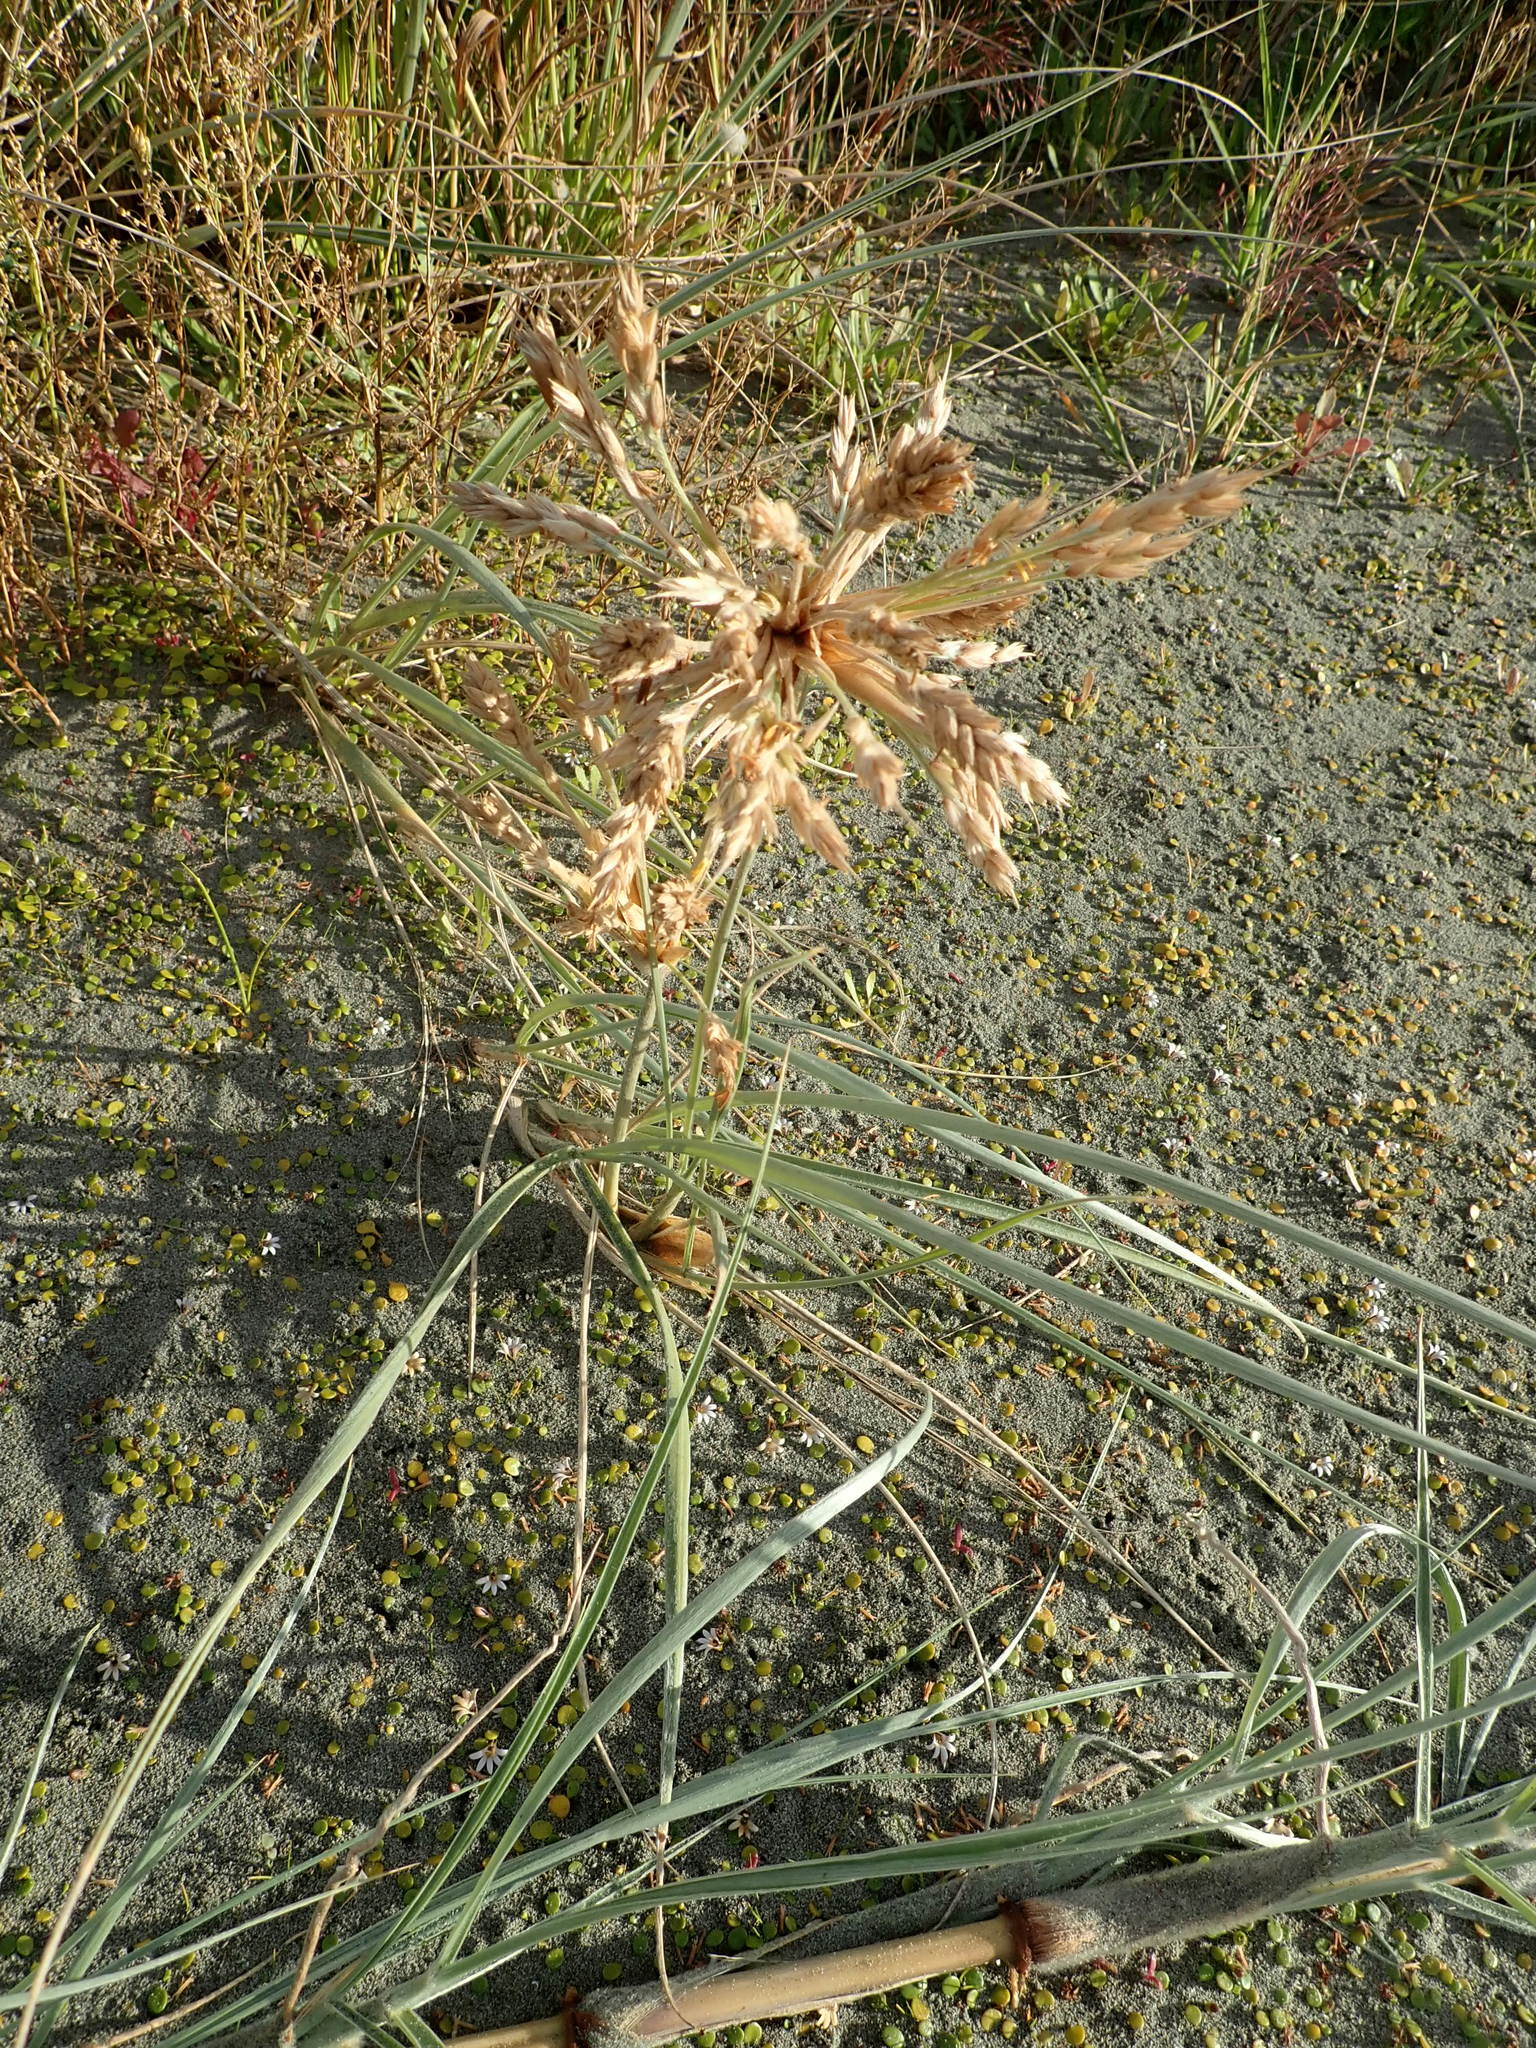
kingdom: Plantae
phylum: Tracheophyta
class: Liliopsida
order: Poales
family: Poaceae
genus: Spinifex
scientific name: Spinifex sericeus
